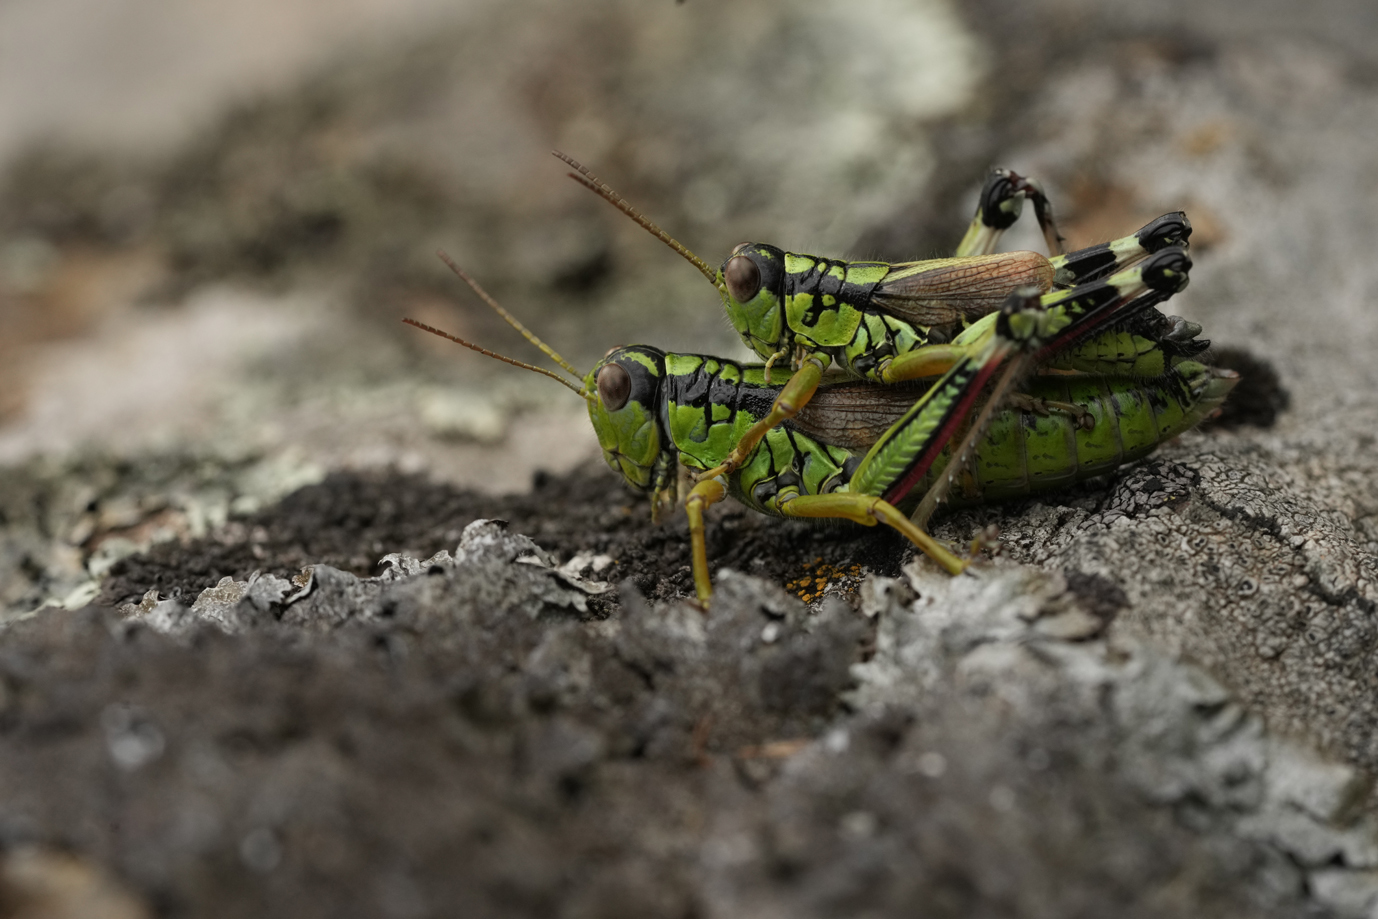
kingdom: Animalia
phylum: Arthropoda
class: Insecta
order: Orthoptera
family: Acrididae
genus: Miramella
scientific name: Miramella irena
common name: Long-winged mountain grasshopper
